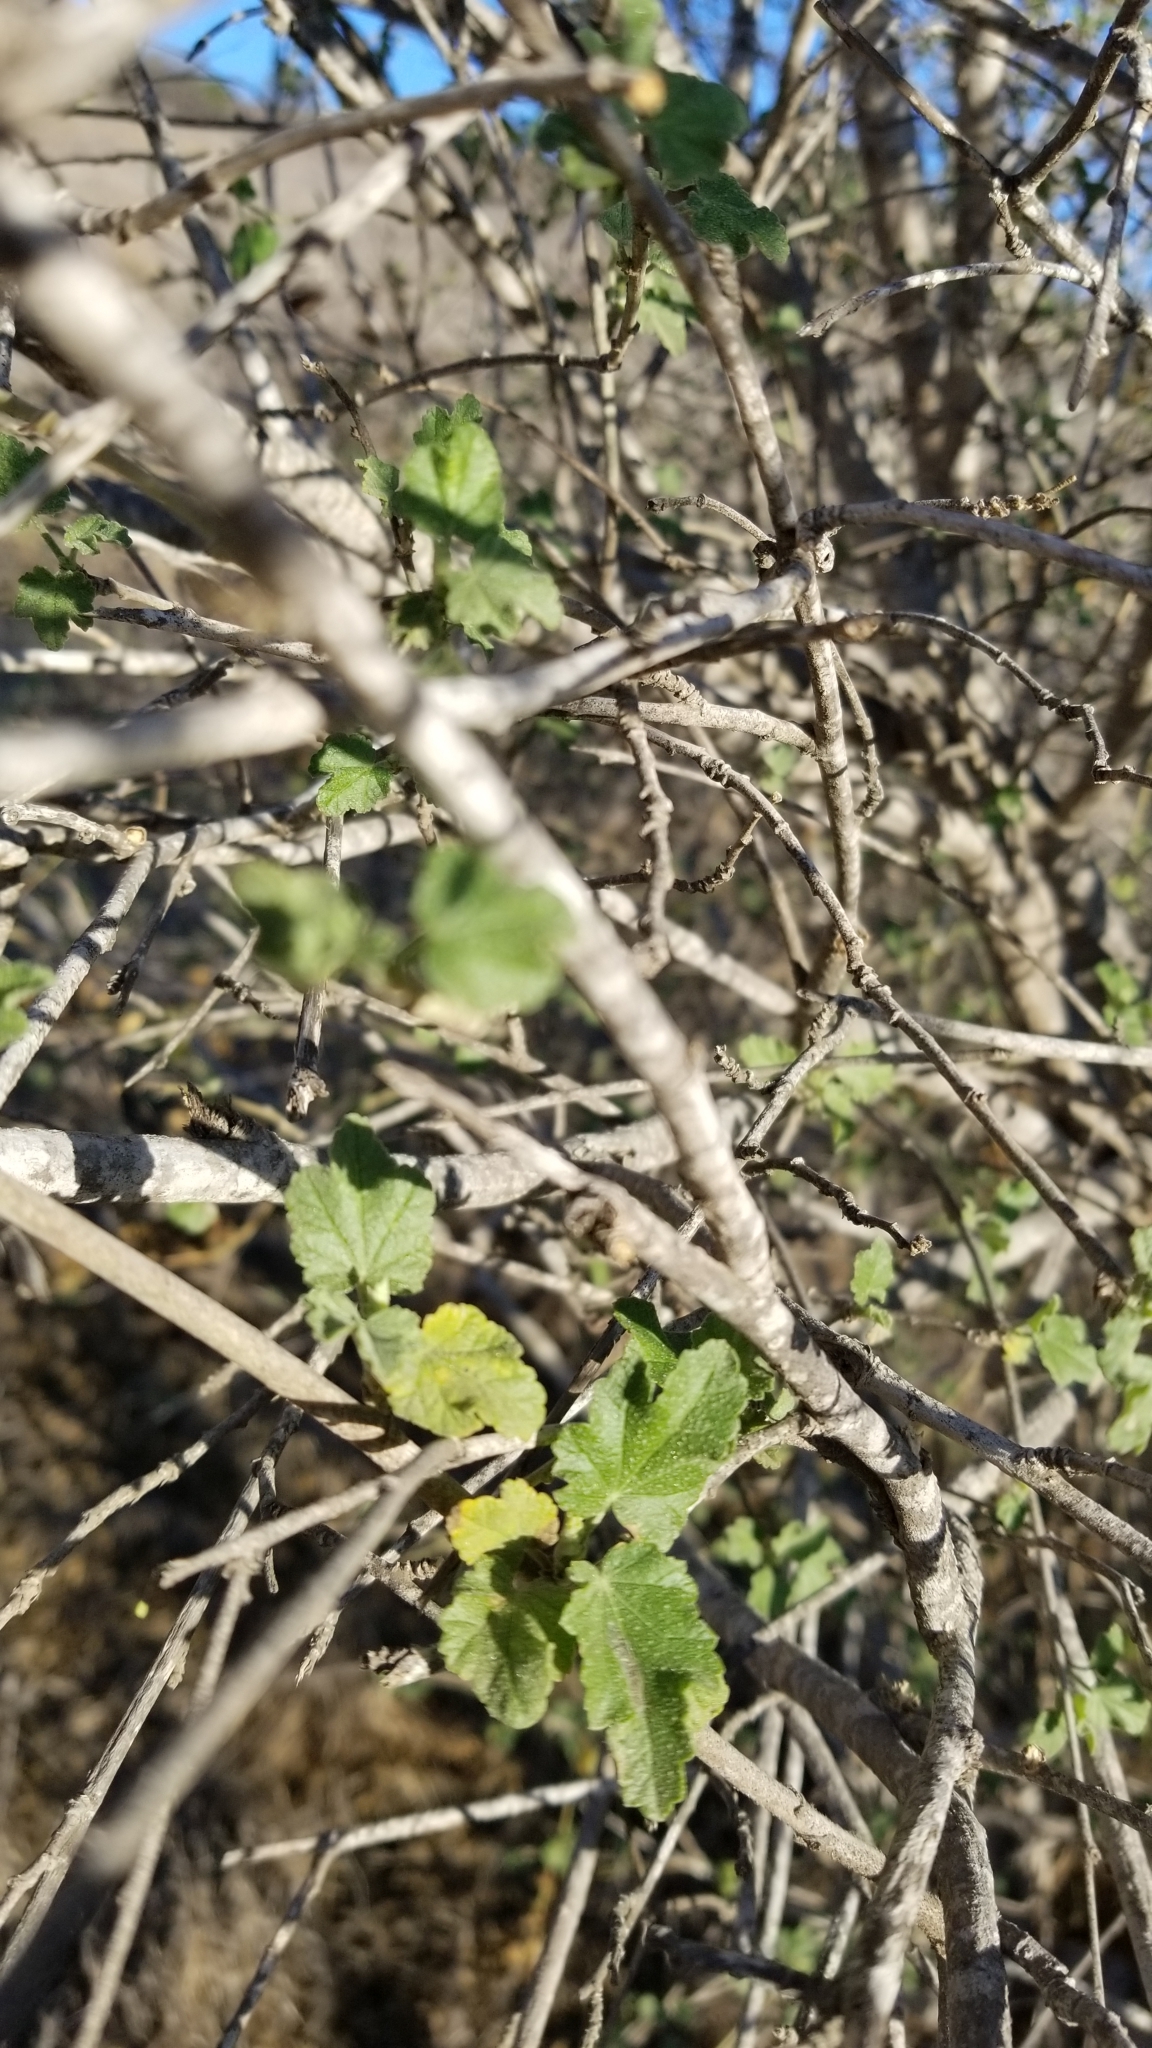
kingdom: Plantae
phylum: Tracheophyta
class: Magnoliopsida
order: Malvales
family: Malvaceae
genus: Malacothamnus
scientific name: Malacothamnus fasciculatus
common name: Sant cruz island bush-mallow
